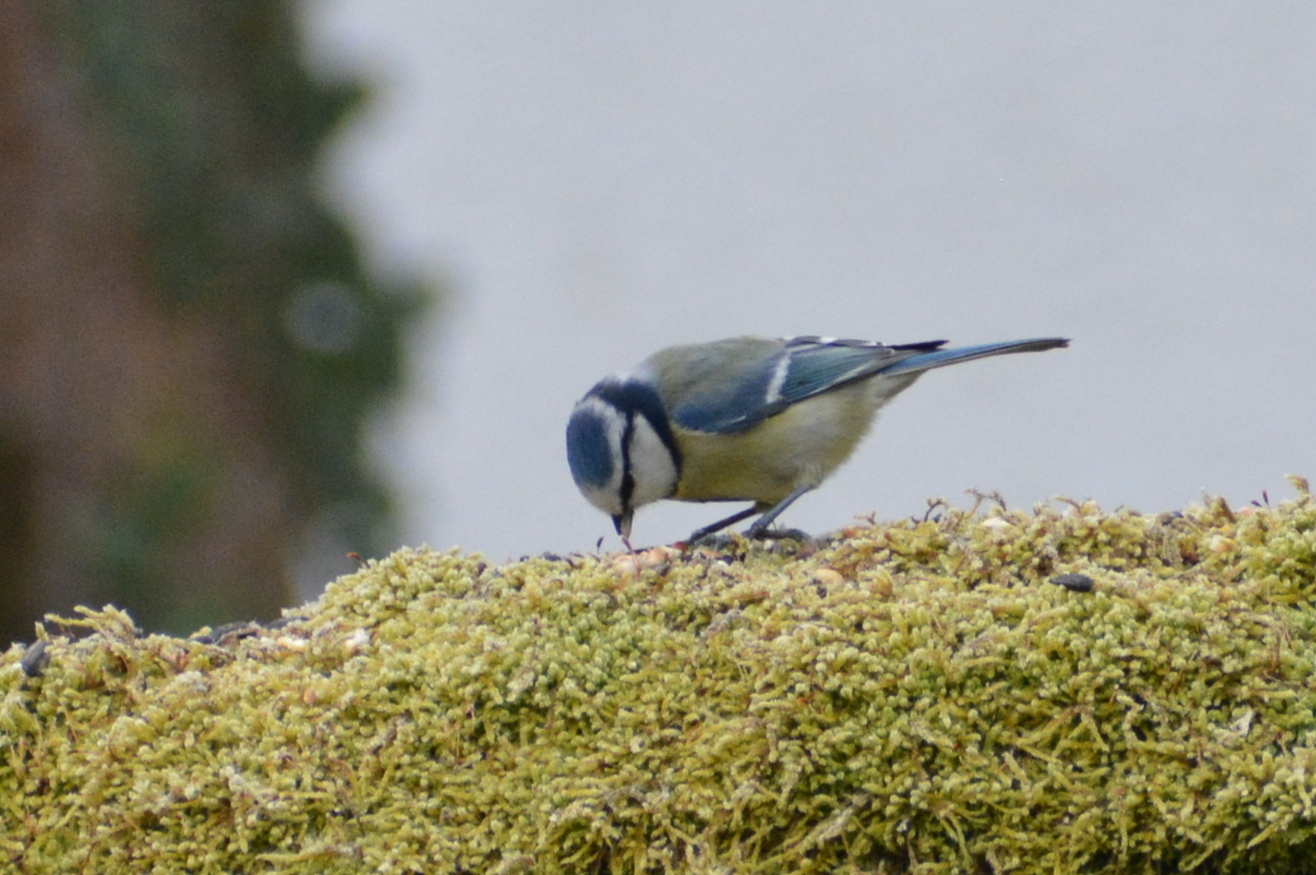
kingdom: Animalia
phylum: Chordata
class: Aves
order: Passeriformes
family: Paridae
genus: Cyanistes
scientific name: Cyanistes caeruleus
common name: Eurasian blue tit
